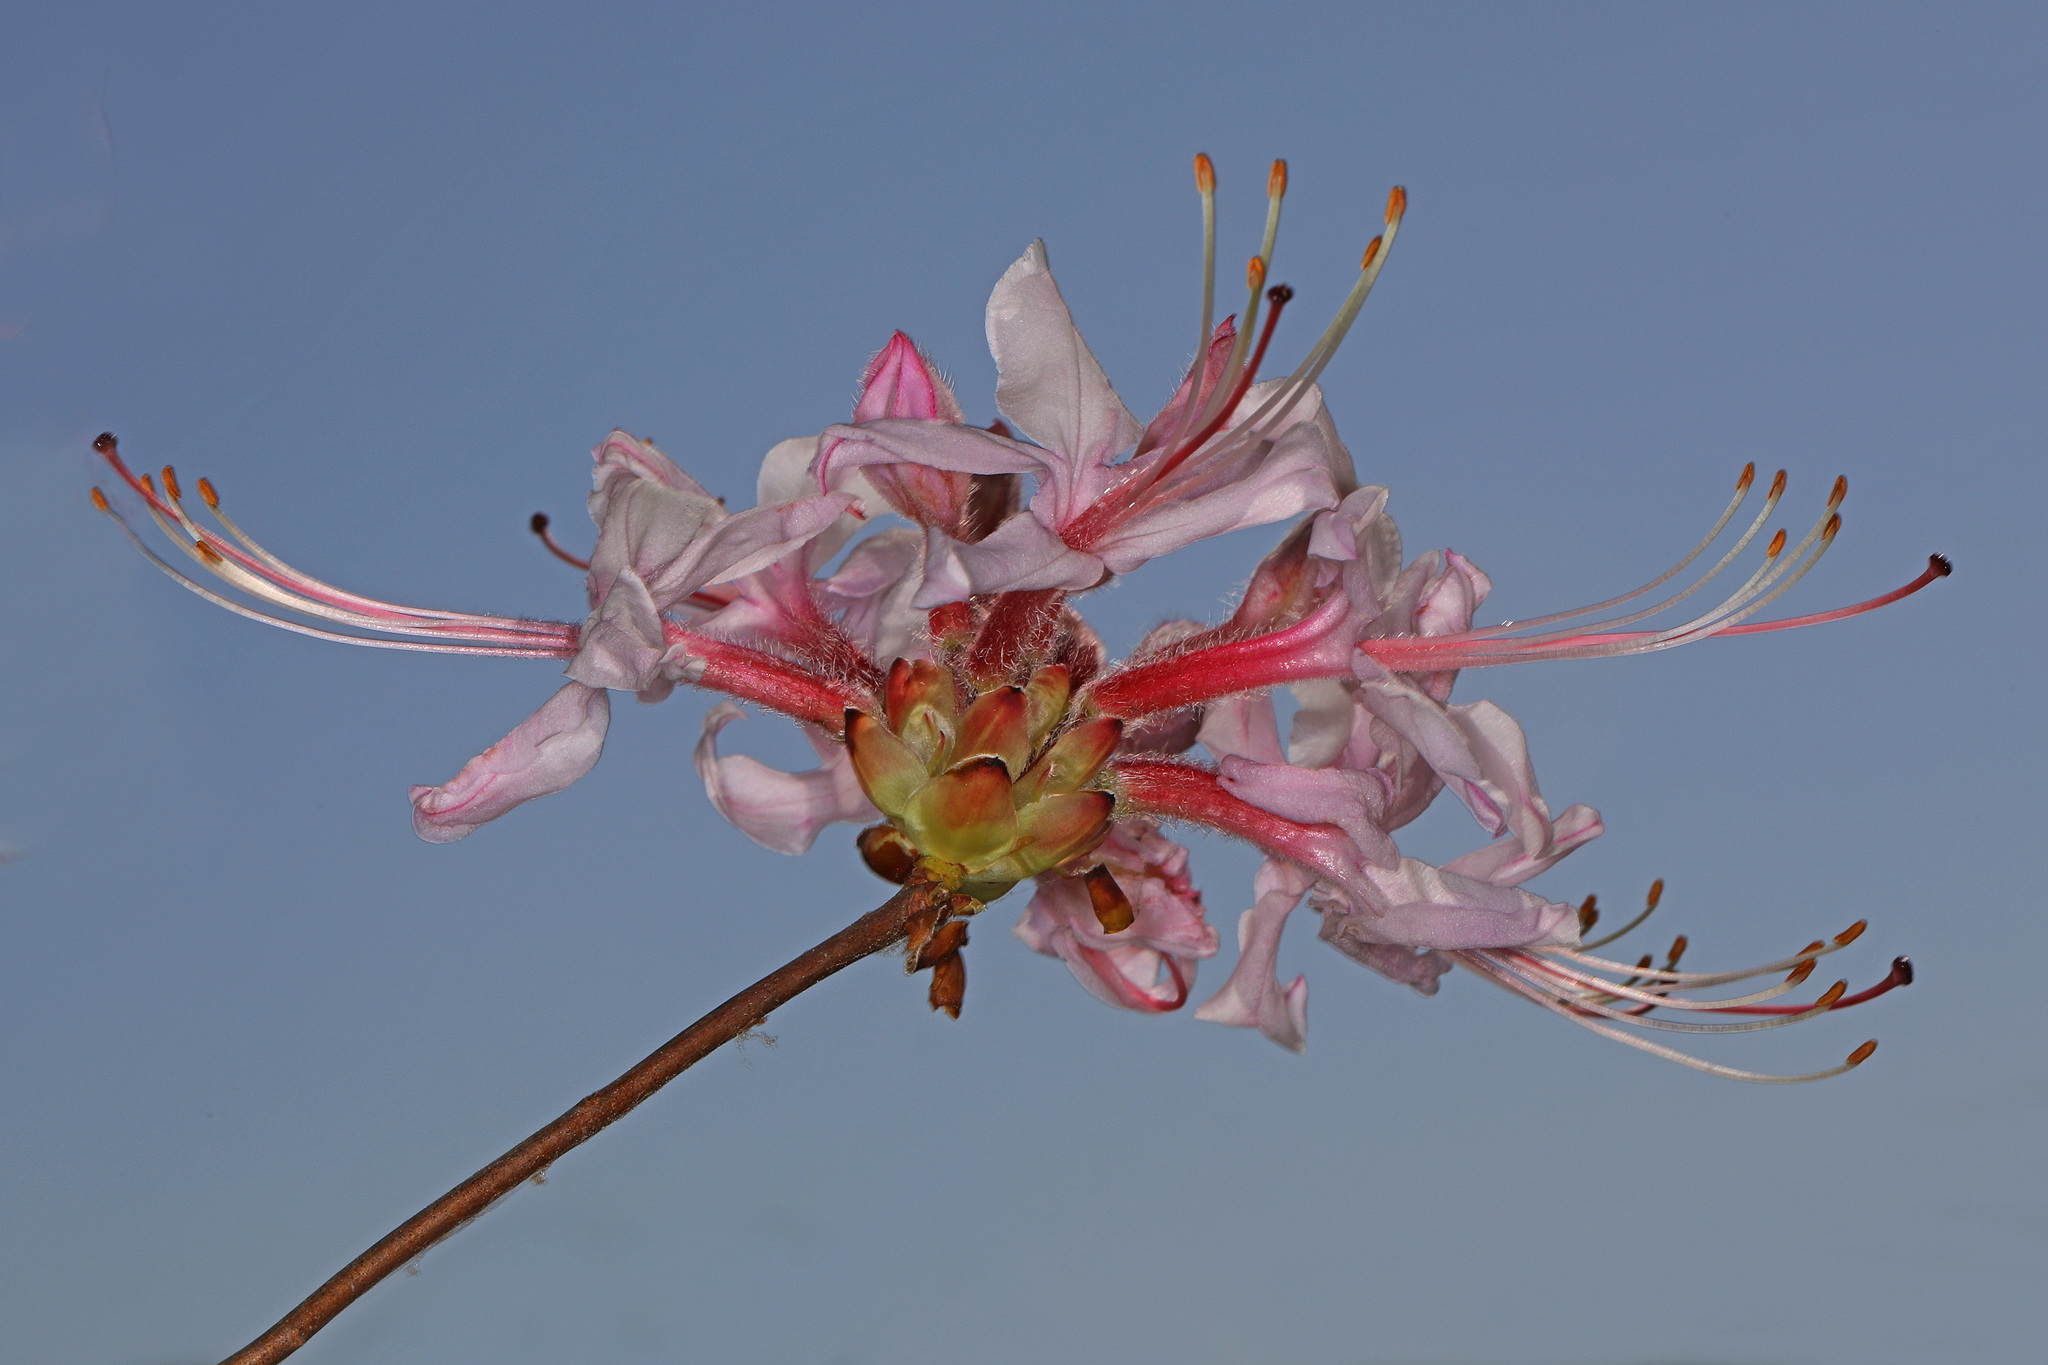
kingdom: Plantae
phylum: Tracheophyta
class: Magnoliopsida
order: Ericales
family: Ericaceae
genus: Rhododendron
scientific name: Rhododendron periclymenoides
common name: Election-pink
